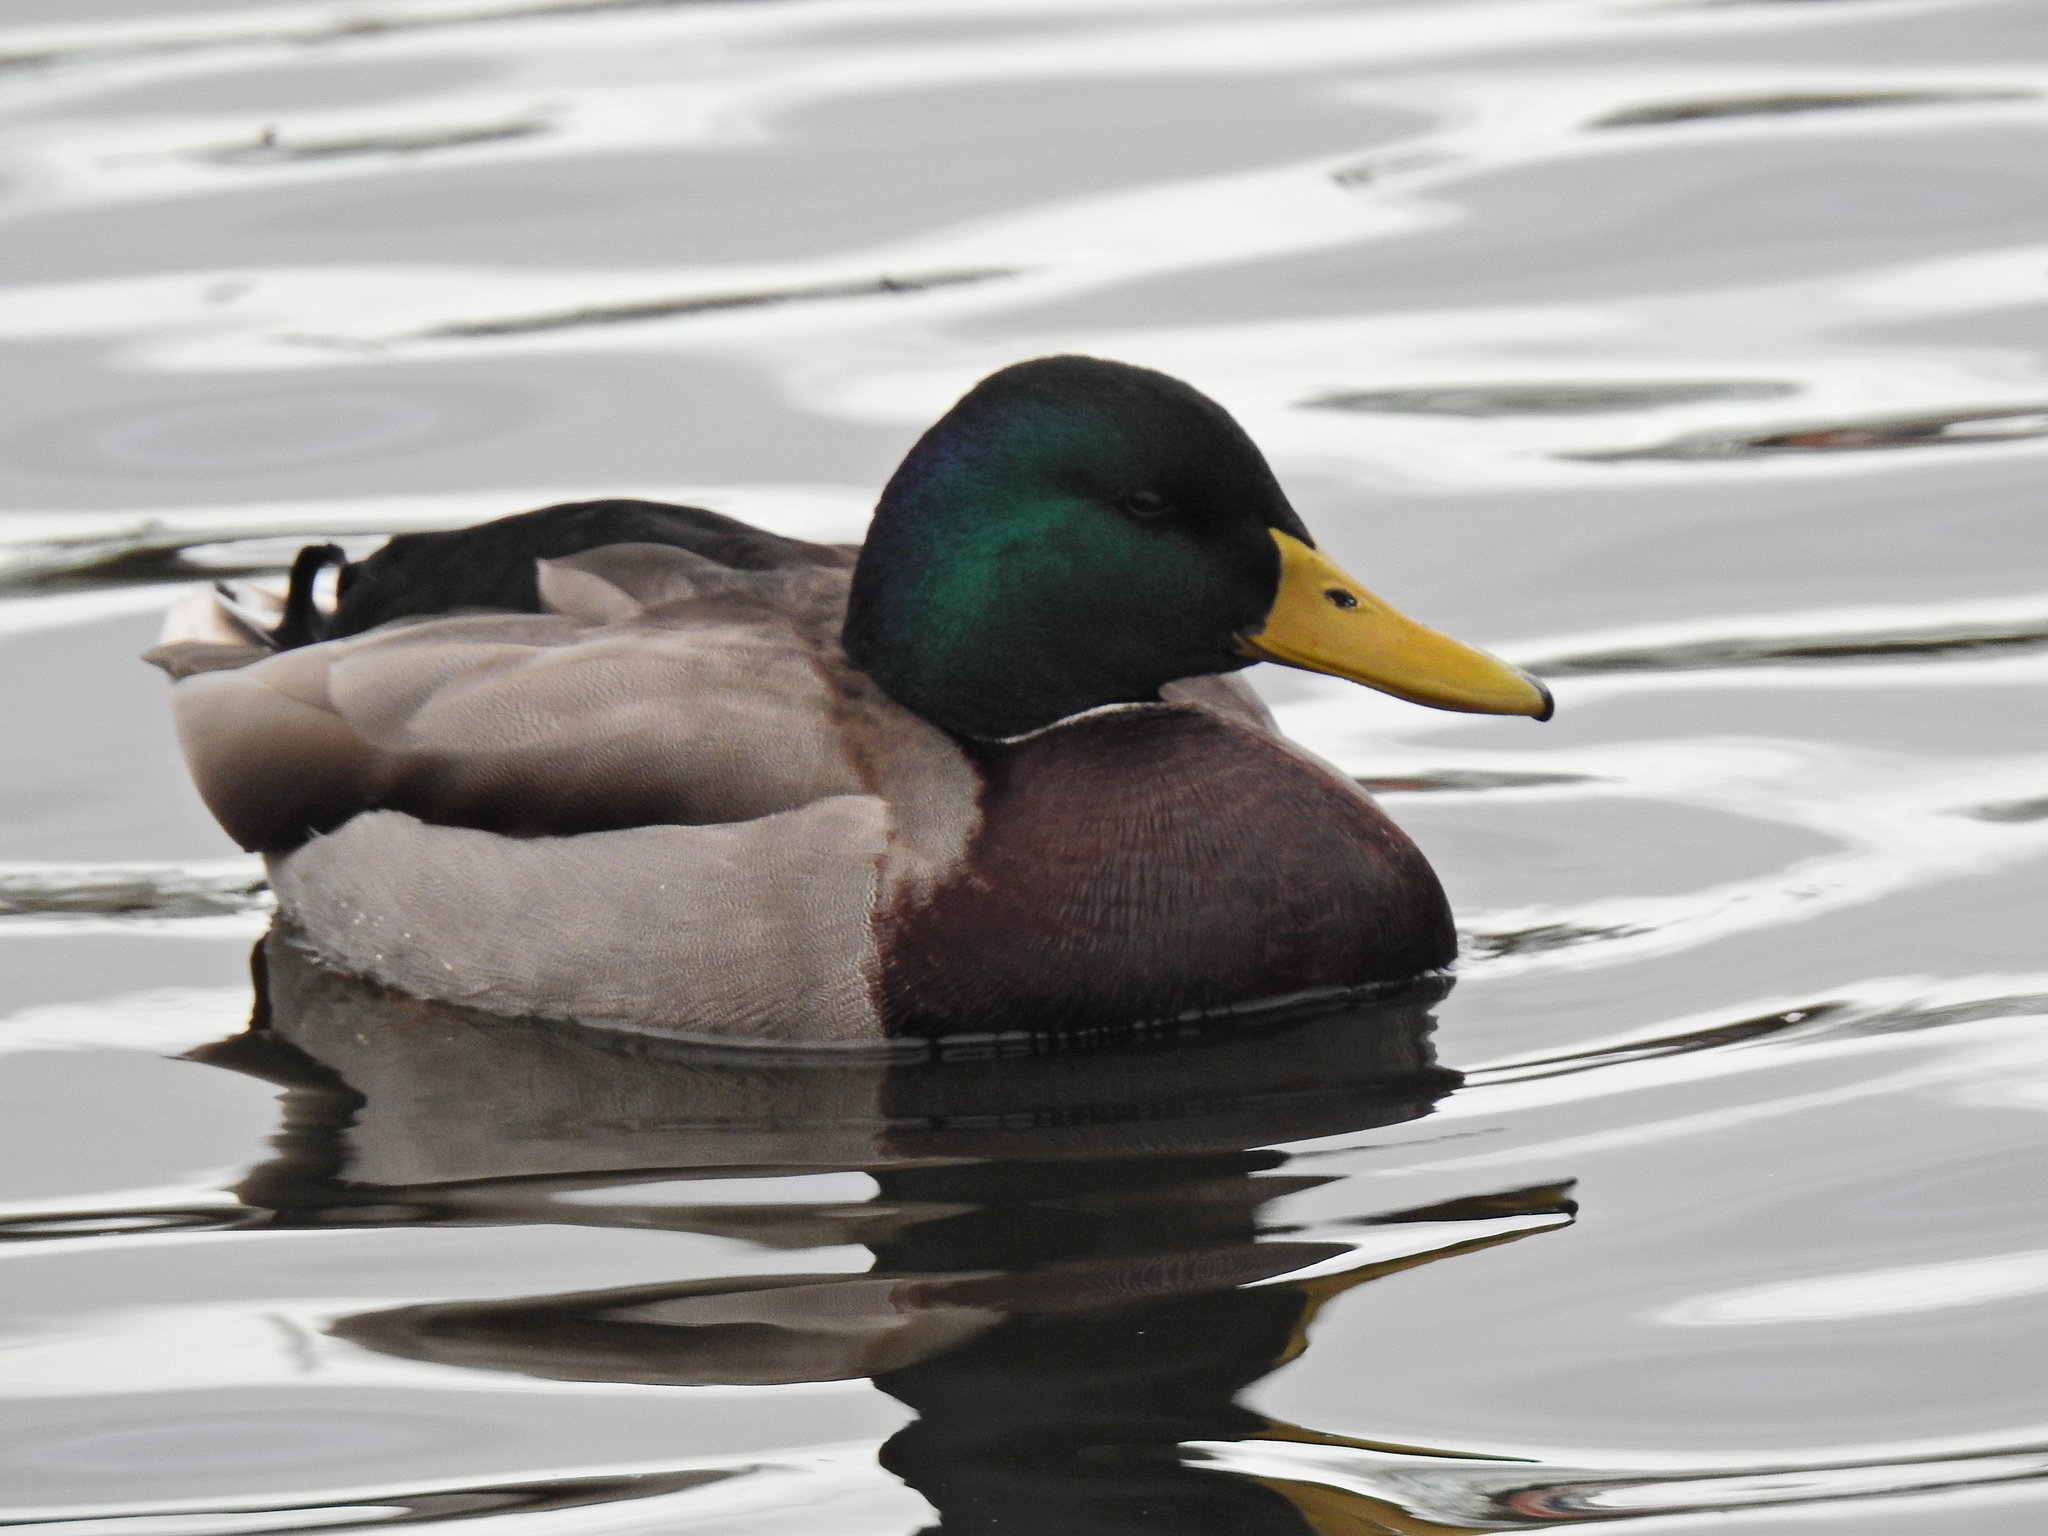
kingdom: Animalia
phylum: Chordata
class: Aves
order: Anseriformes
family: Anatidae
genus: Anas
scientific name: Anas platyrhynchos
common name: Mallard
